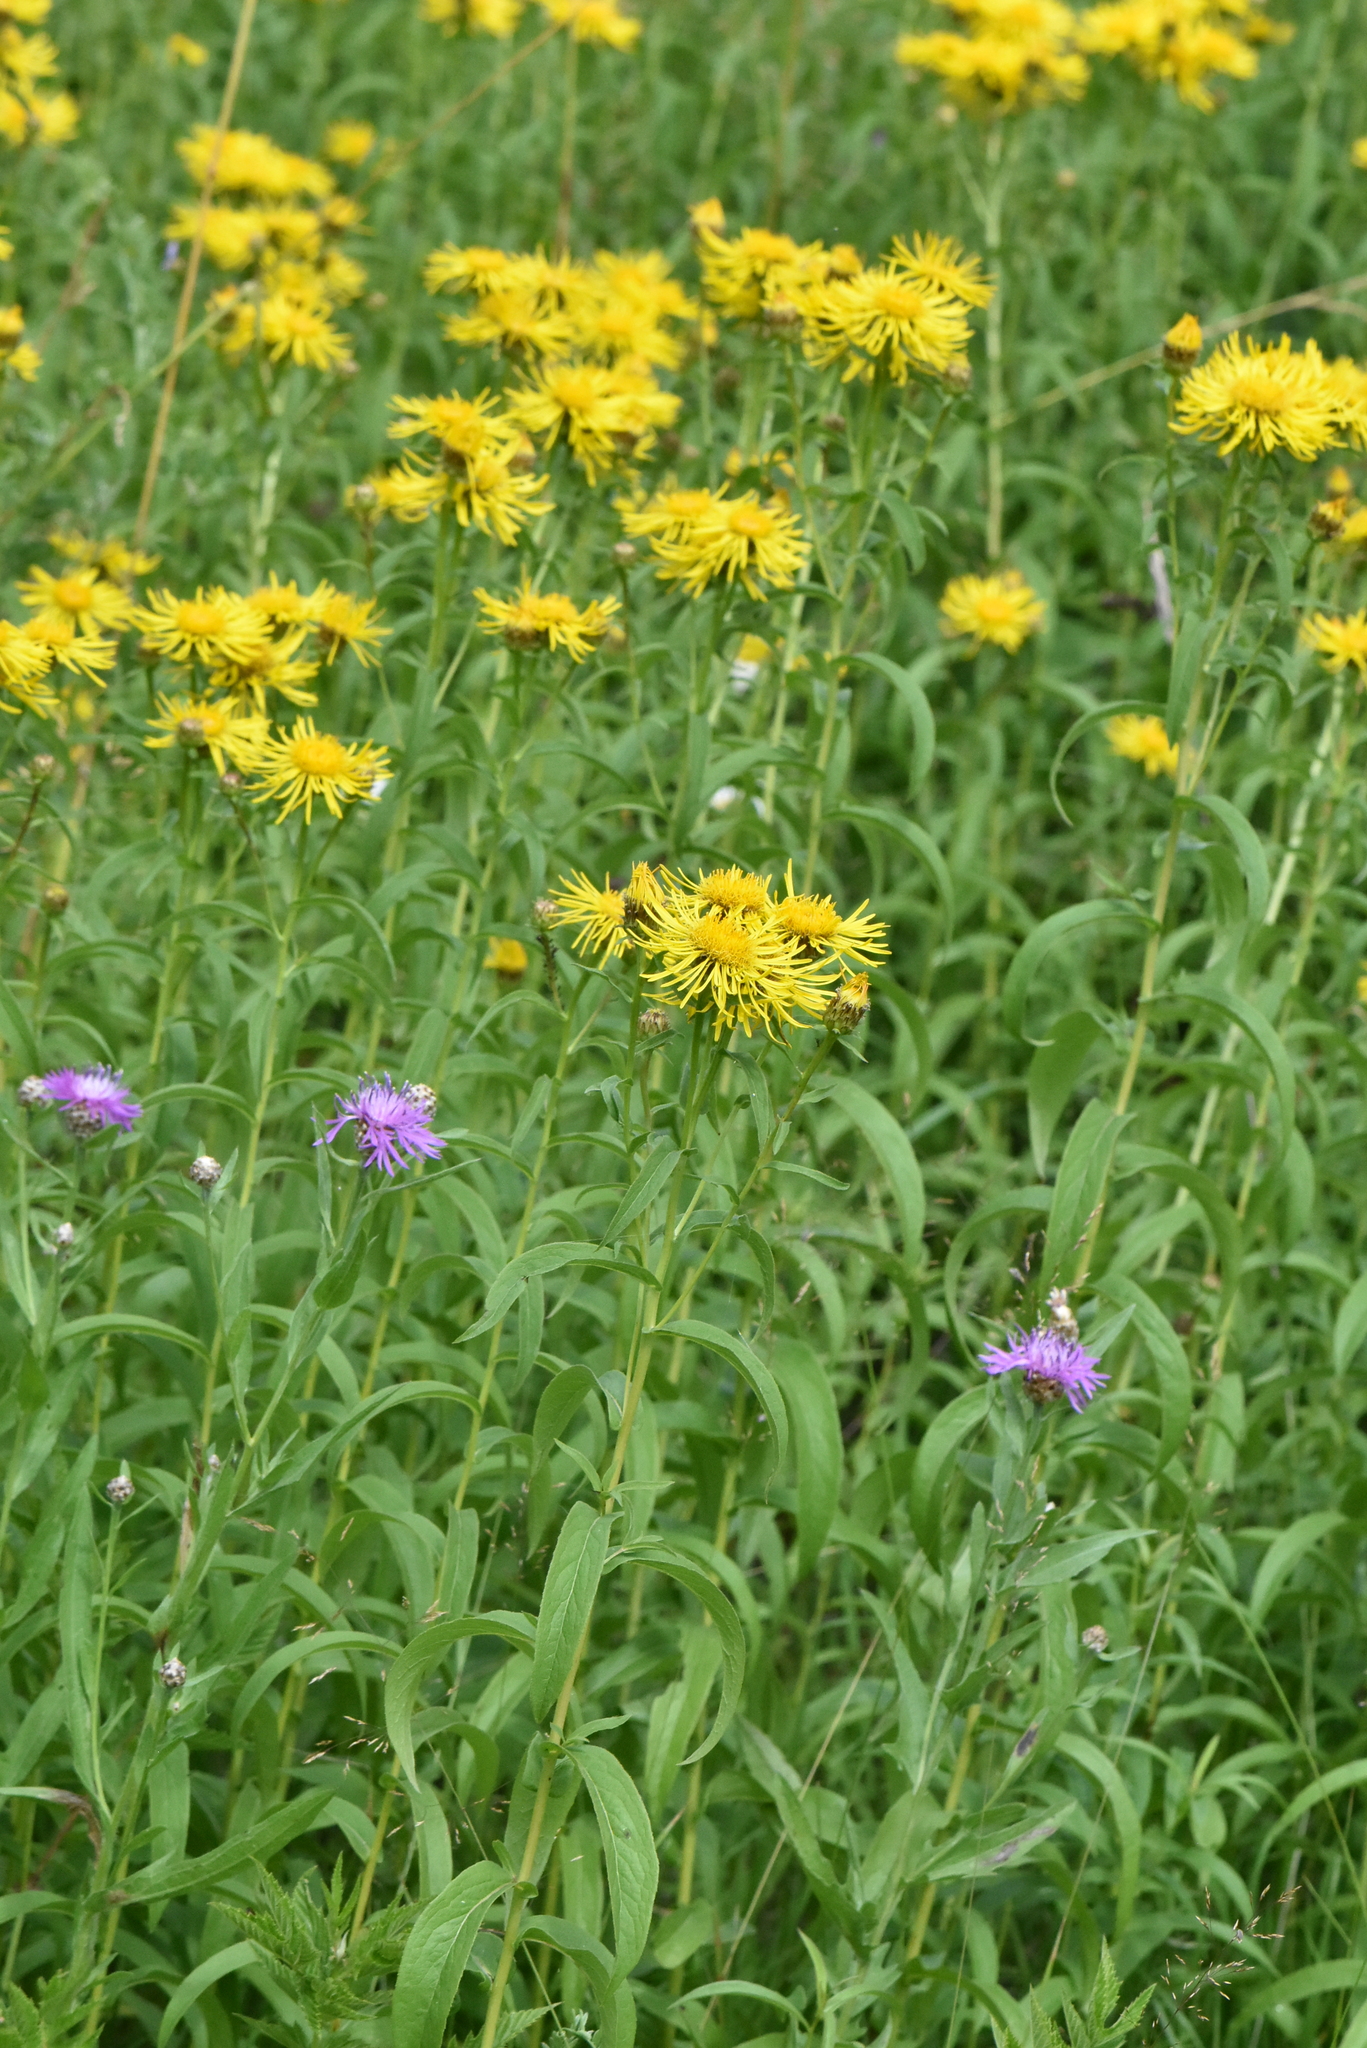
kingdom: Plantae
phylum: Tracheophyta
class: Magnoliopsida
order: Asterales
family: Asteraceae
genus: Pentanema
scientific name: Pentanema salicinum
